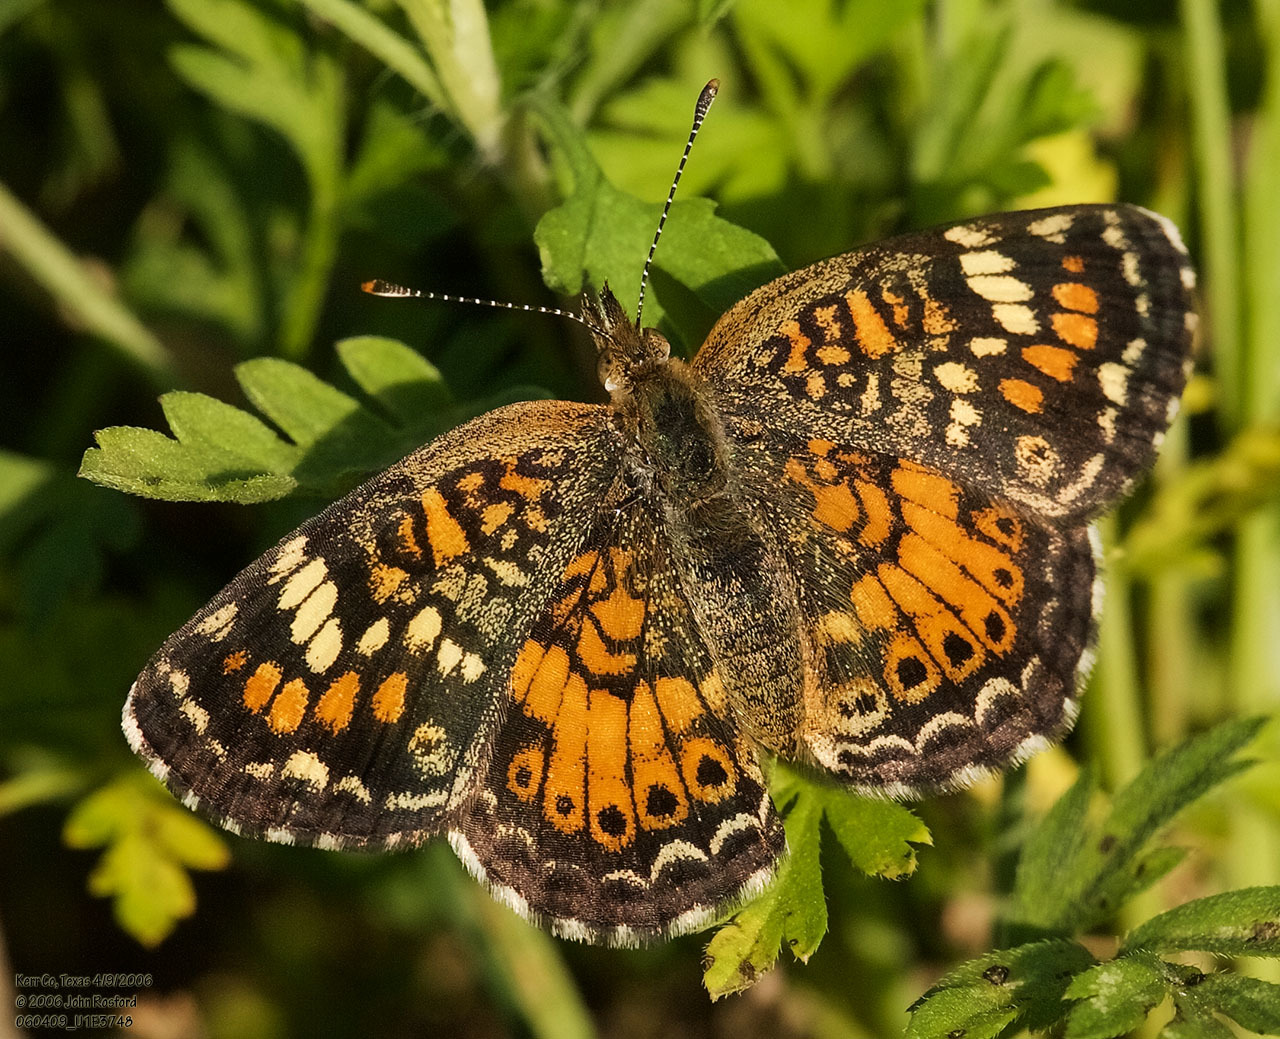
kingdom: Animalia
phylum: Arthropoda
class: Insecta
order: Lepidoptera
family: Nymphalidae
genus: Phyciodes
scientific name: Phyciodes phaon
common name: Phaon crescent
